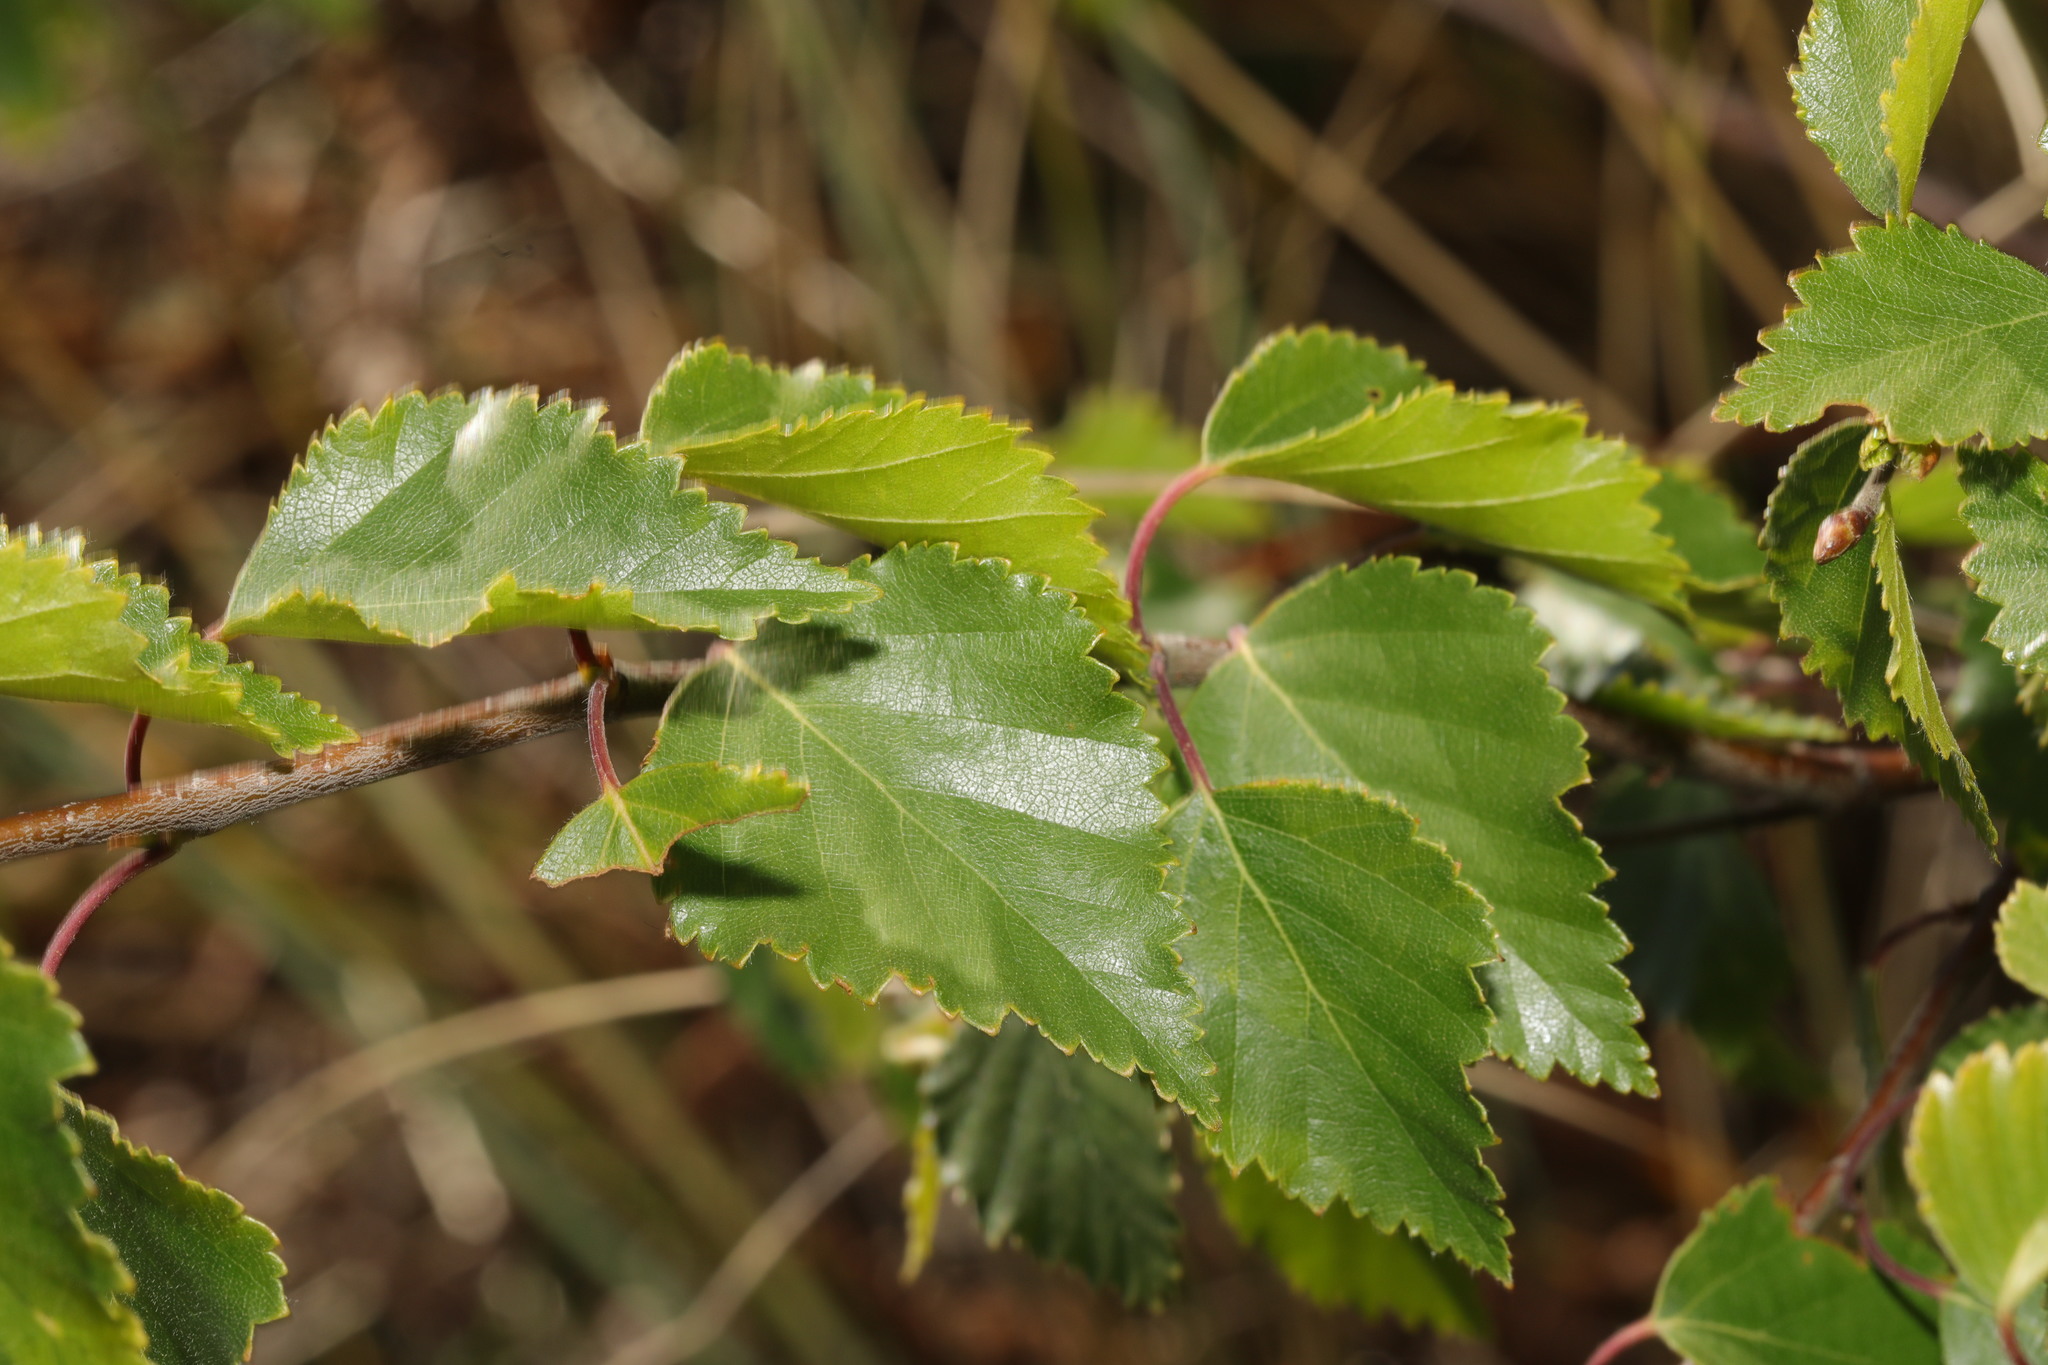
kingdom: Plantae
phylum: Tracheophyta
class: Magnoliopsida
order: Fagales
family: Betulaceae
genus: Betula
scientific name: Betula pendula
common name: Silver birch
